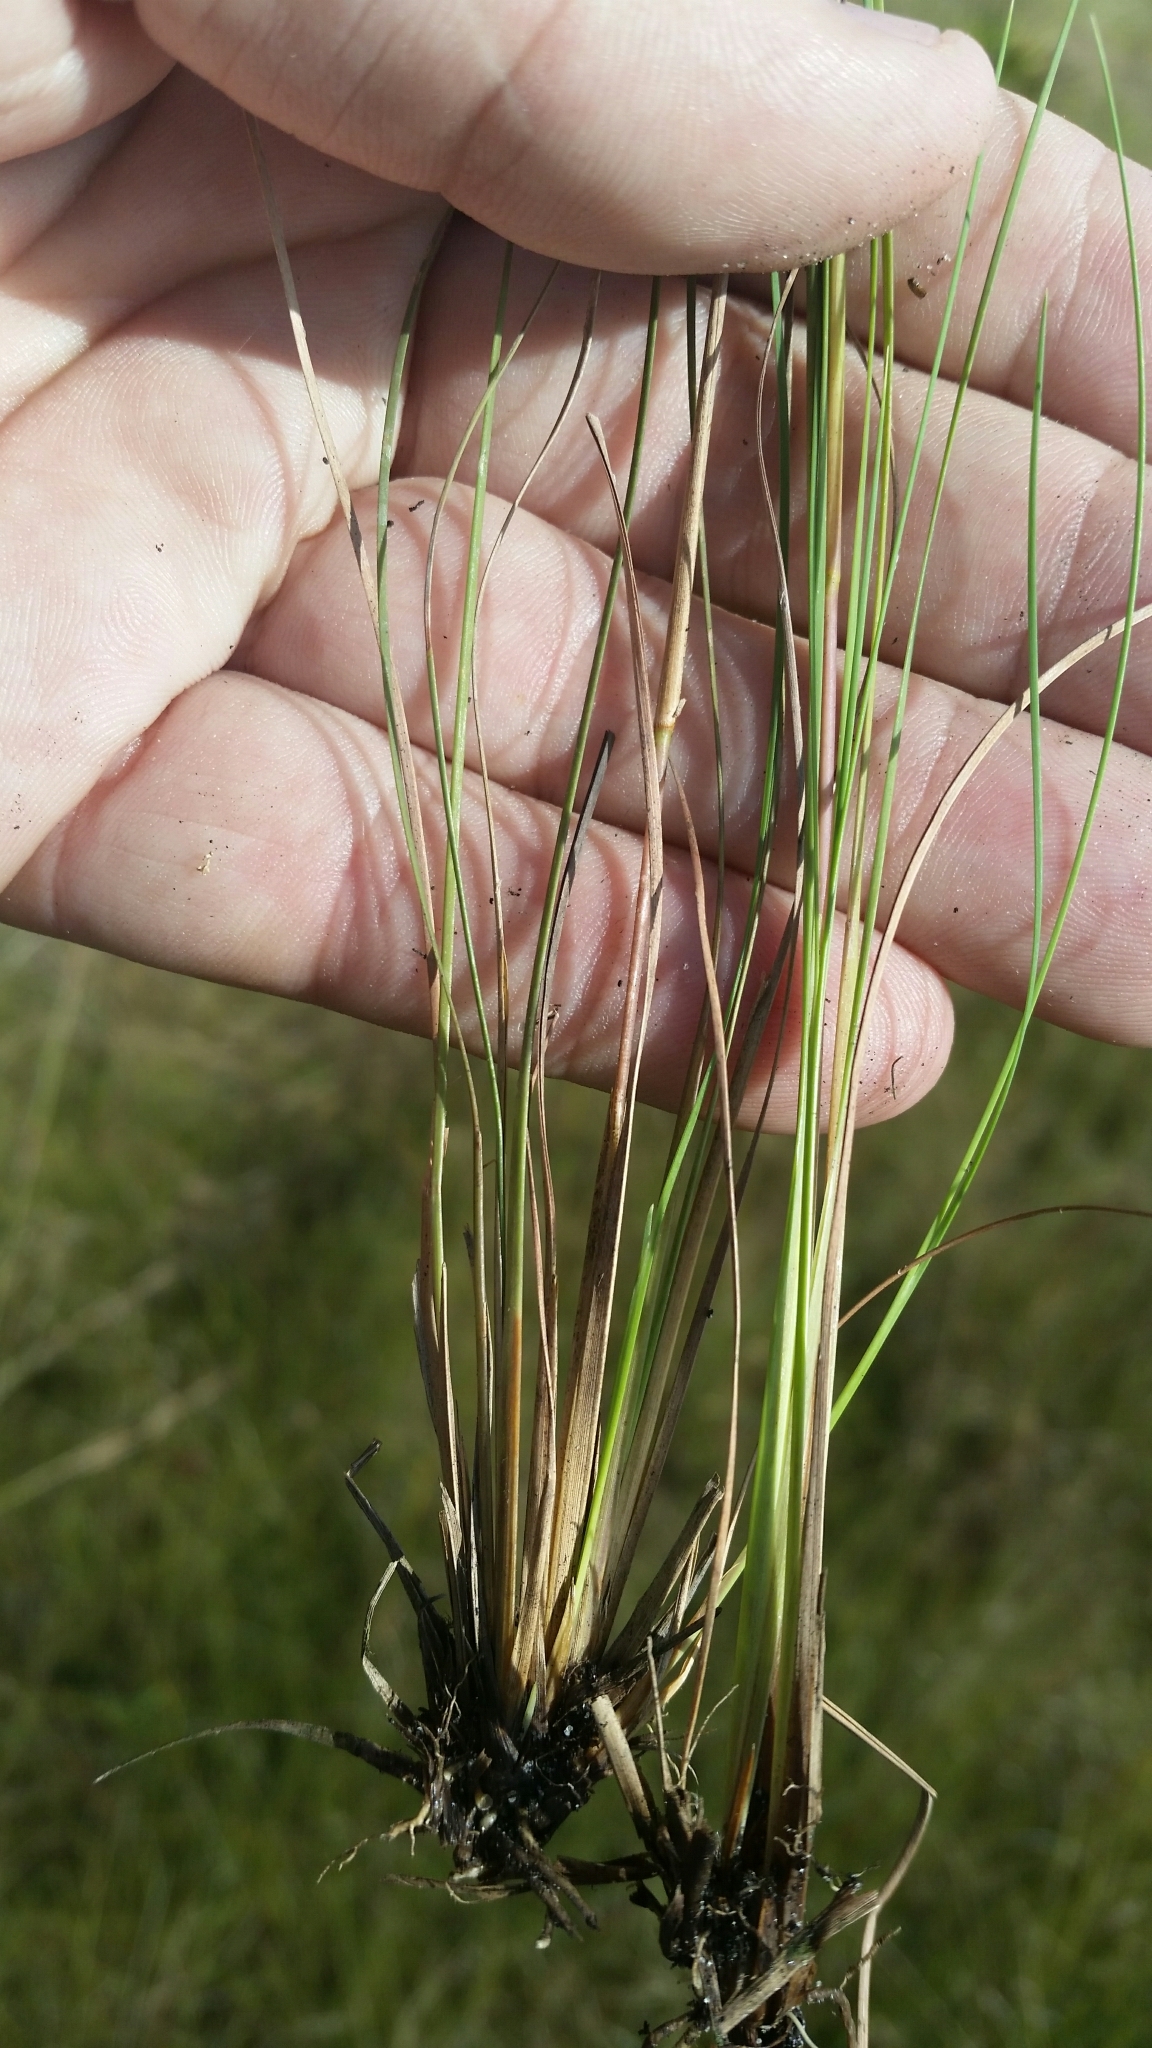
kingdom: Plantae
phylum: Tracheophyta
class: Liliopsida
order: Poales
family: Poaceae
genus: Andropogon
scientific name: Andropogon perangustatus
